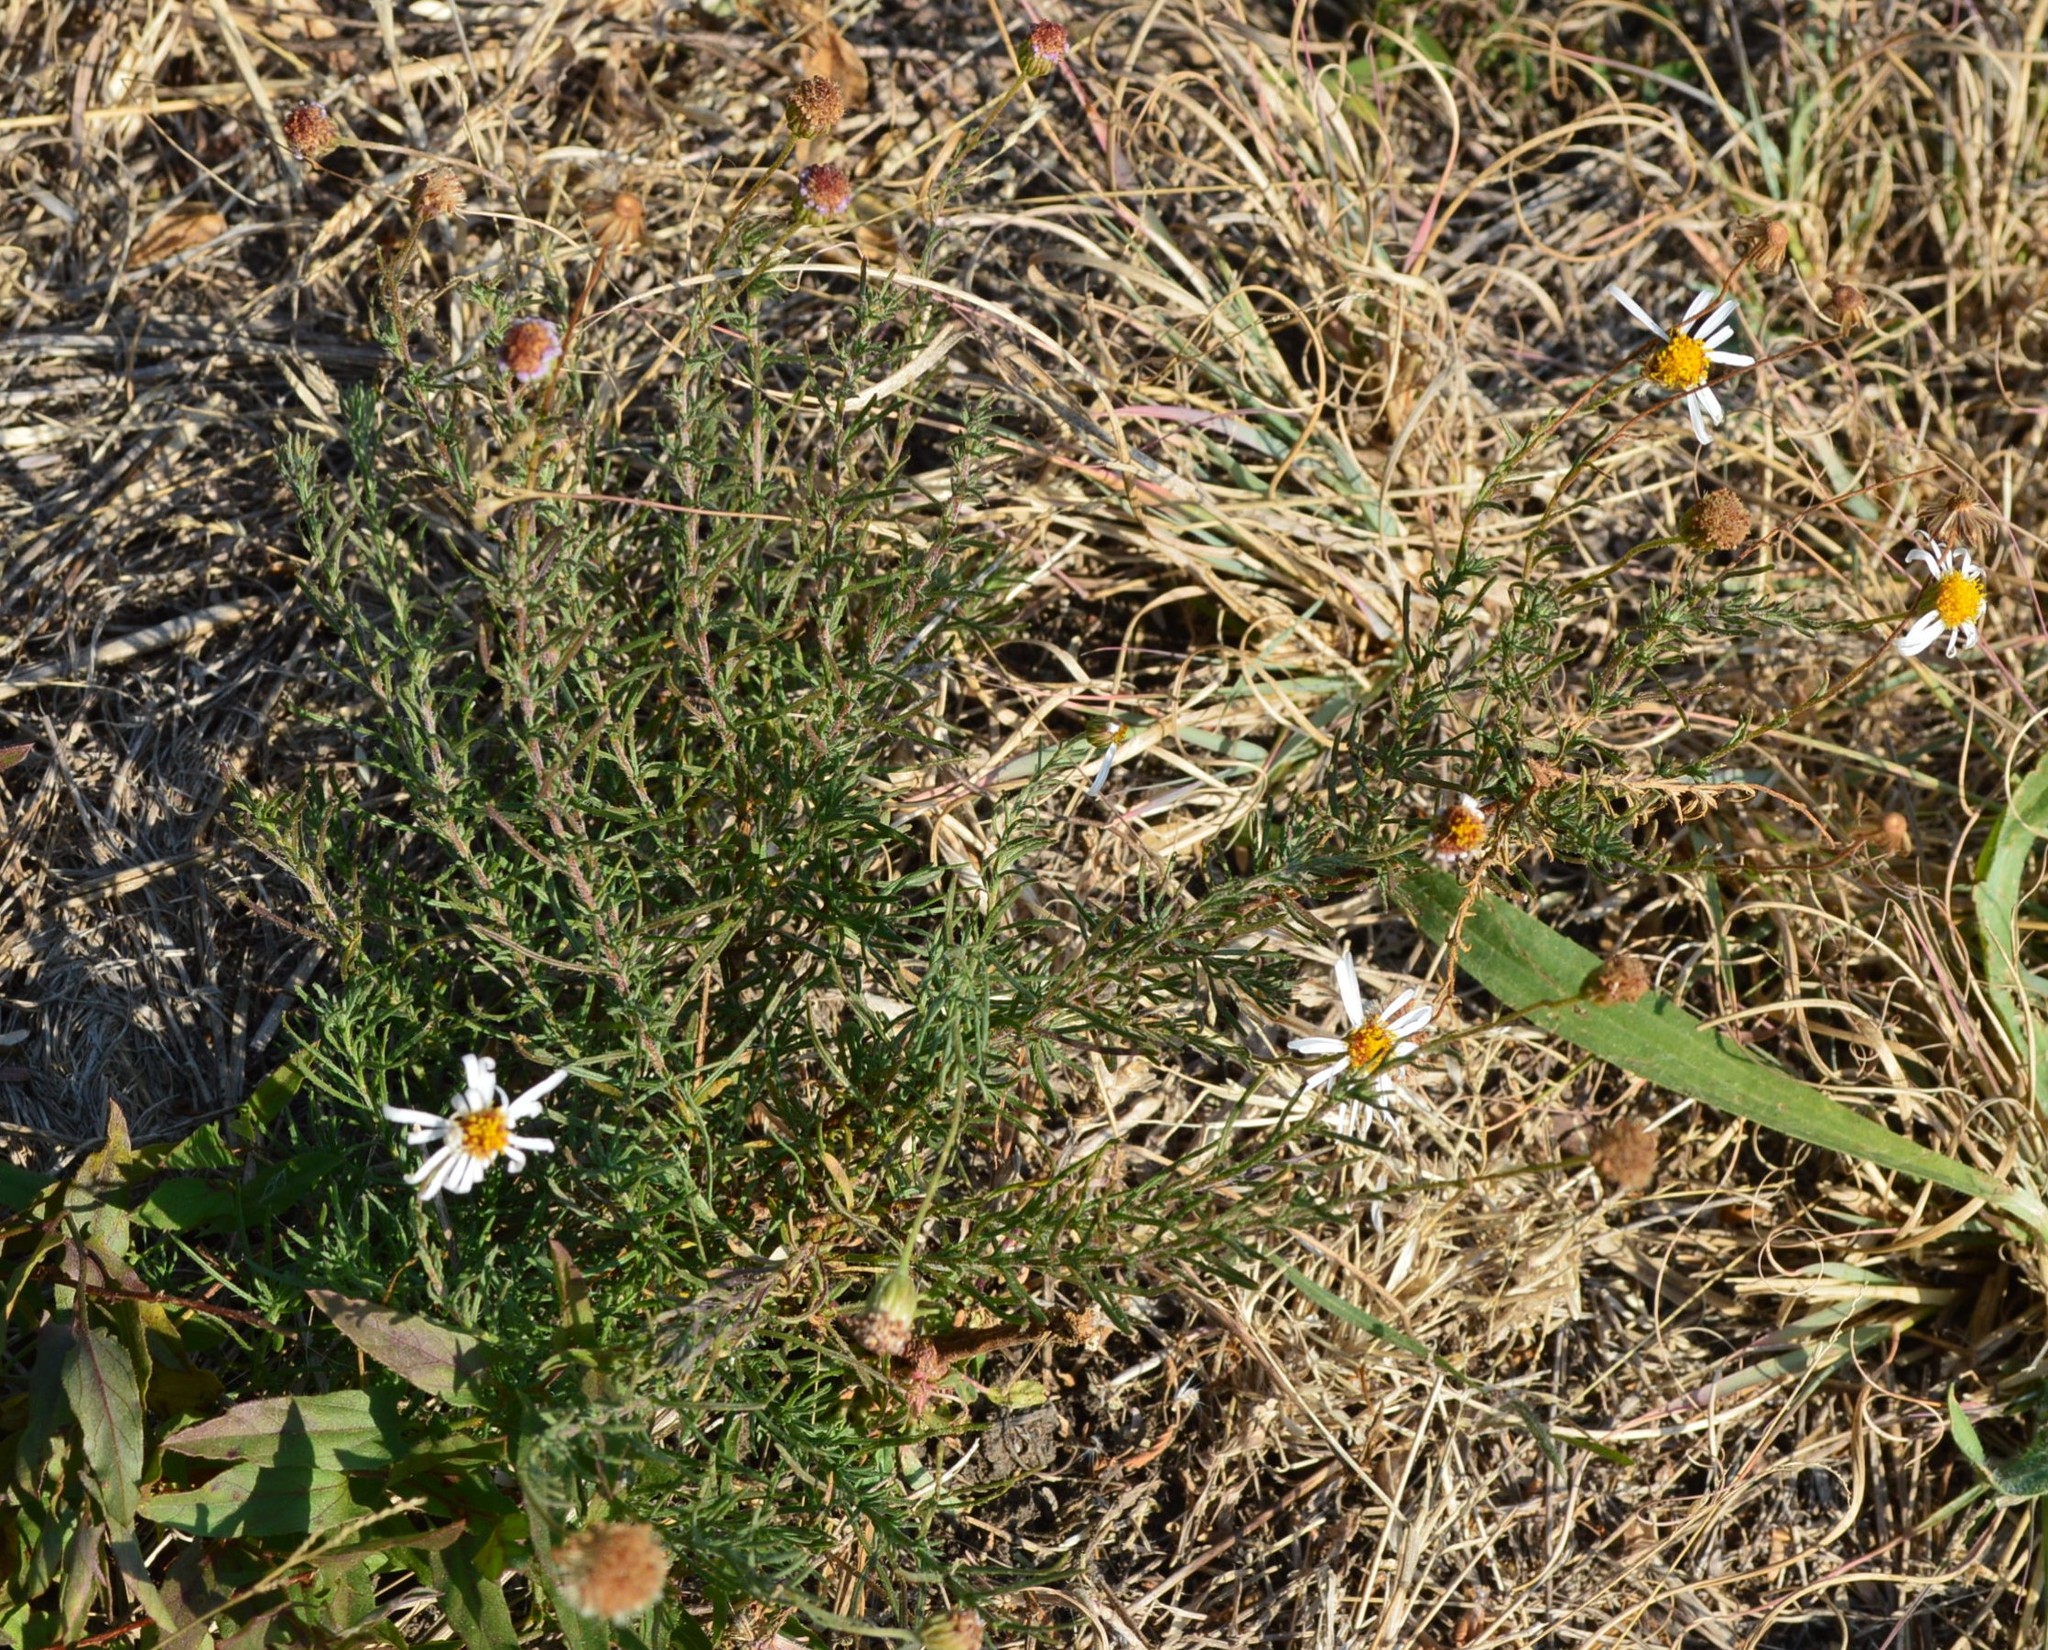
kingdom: Plantae
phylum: Tracheophyta
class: Magnoliopsida
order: Asterales
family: Asteraceae
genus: Felicia
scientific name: Felicia muricata
